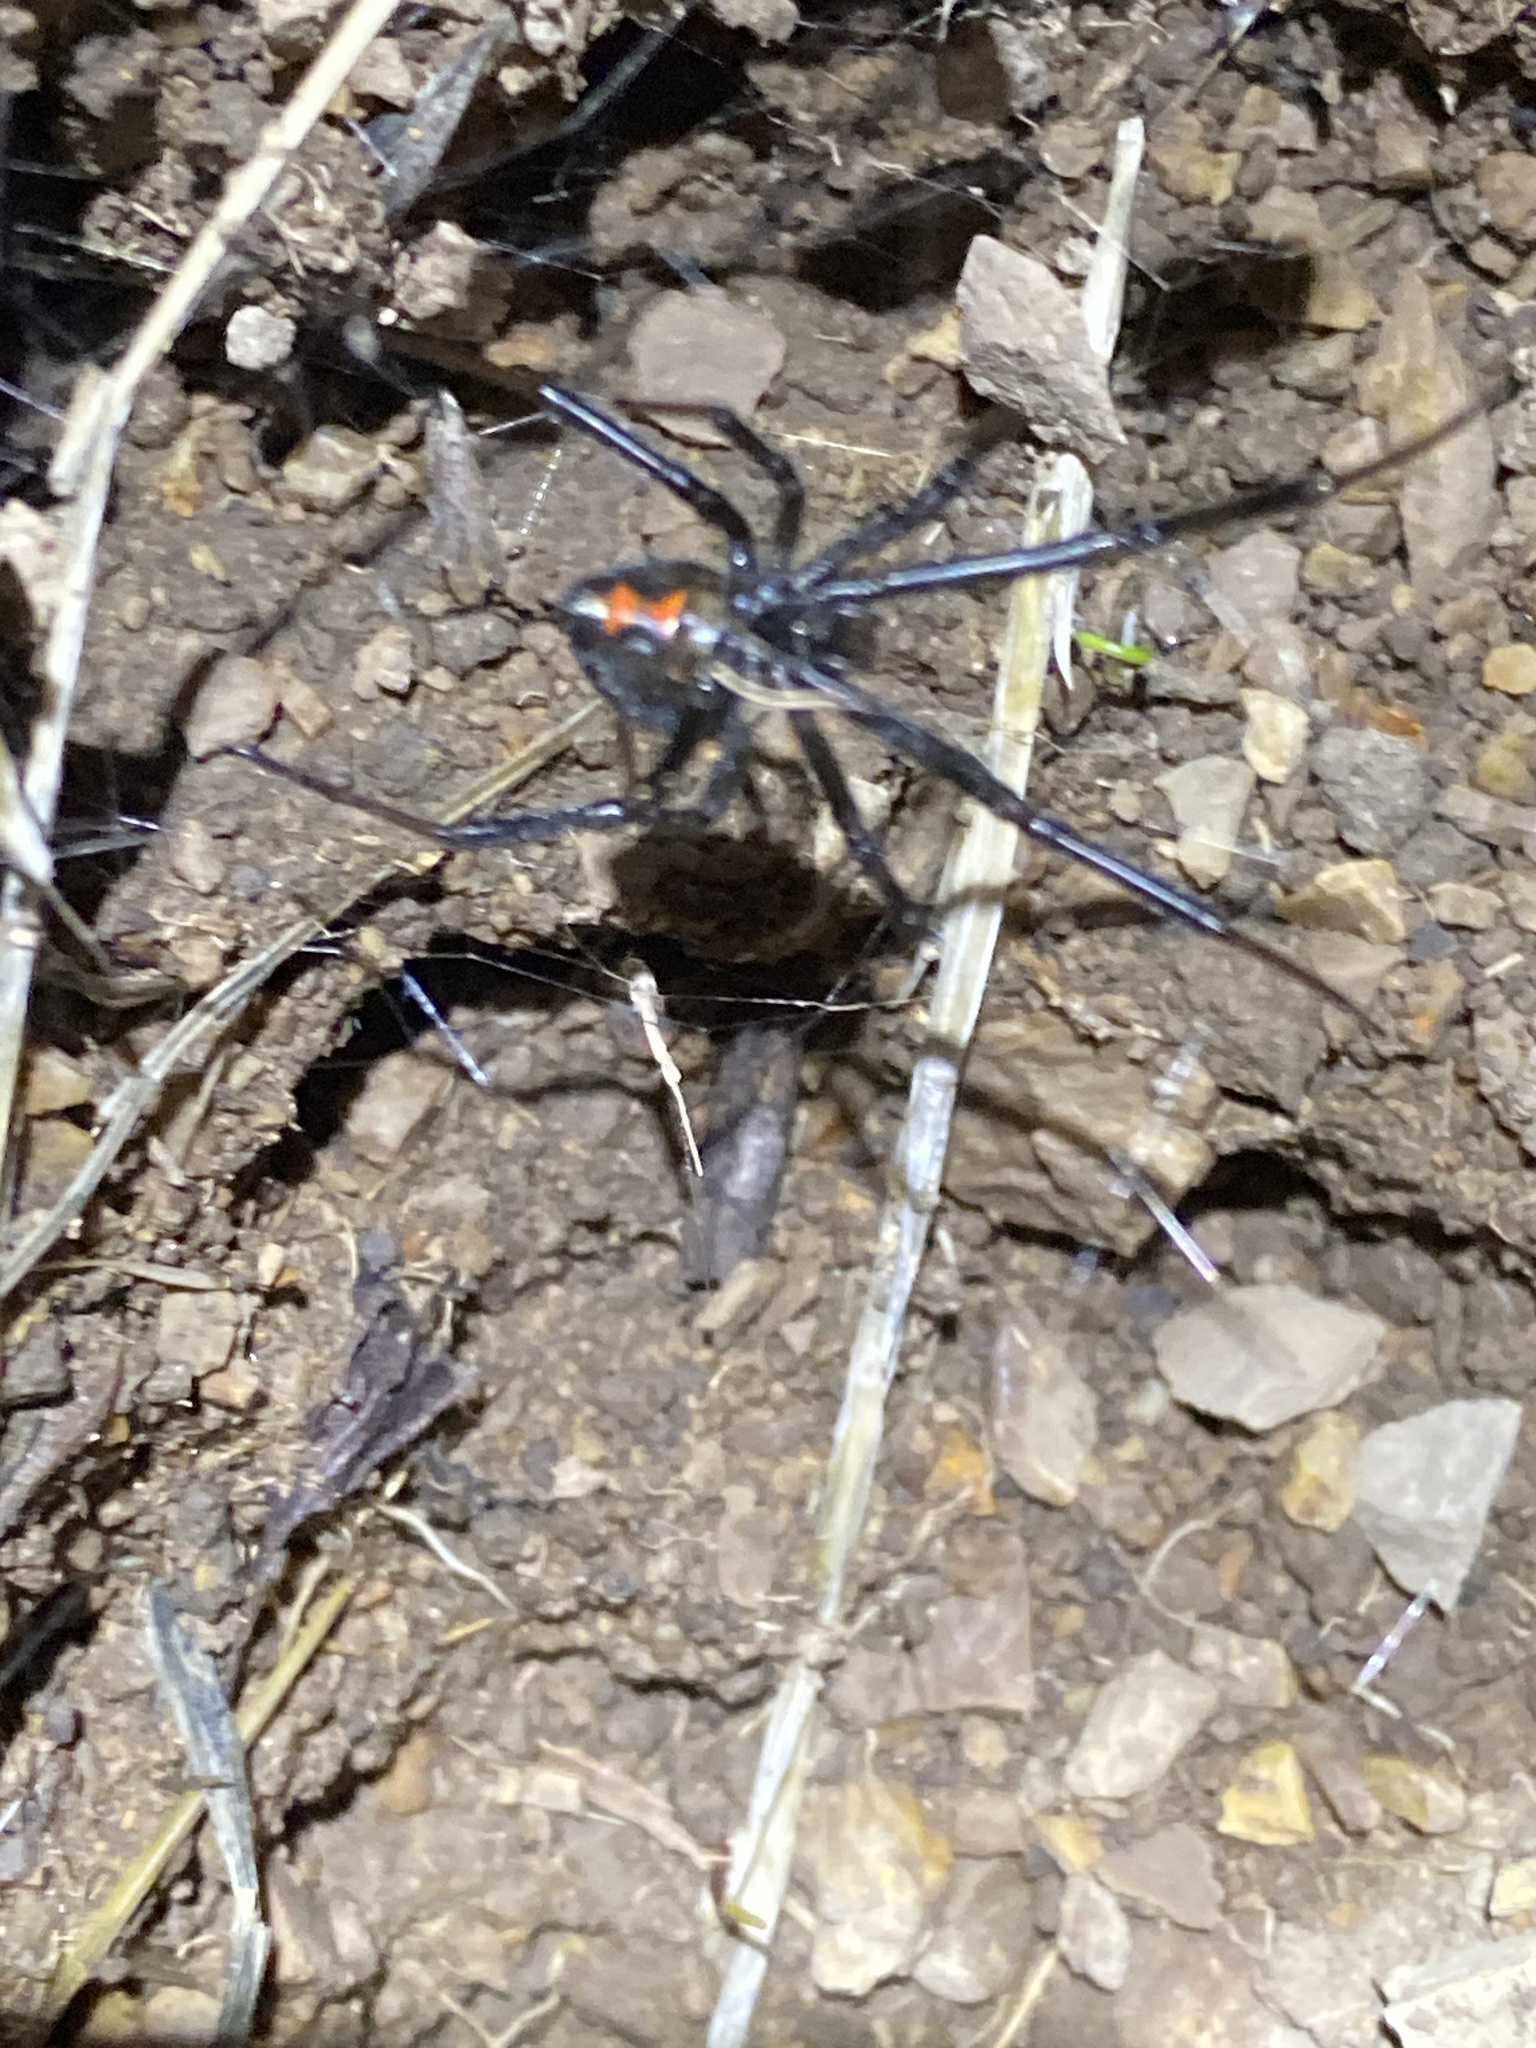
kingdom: Animalia
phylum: Arthropoda
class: Arachnida
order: Araneae
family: Theridiidae
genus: Latrodectus
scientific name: Latrodectus hesperus
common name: Western black widow
